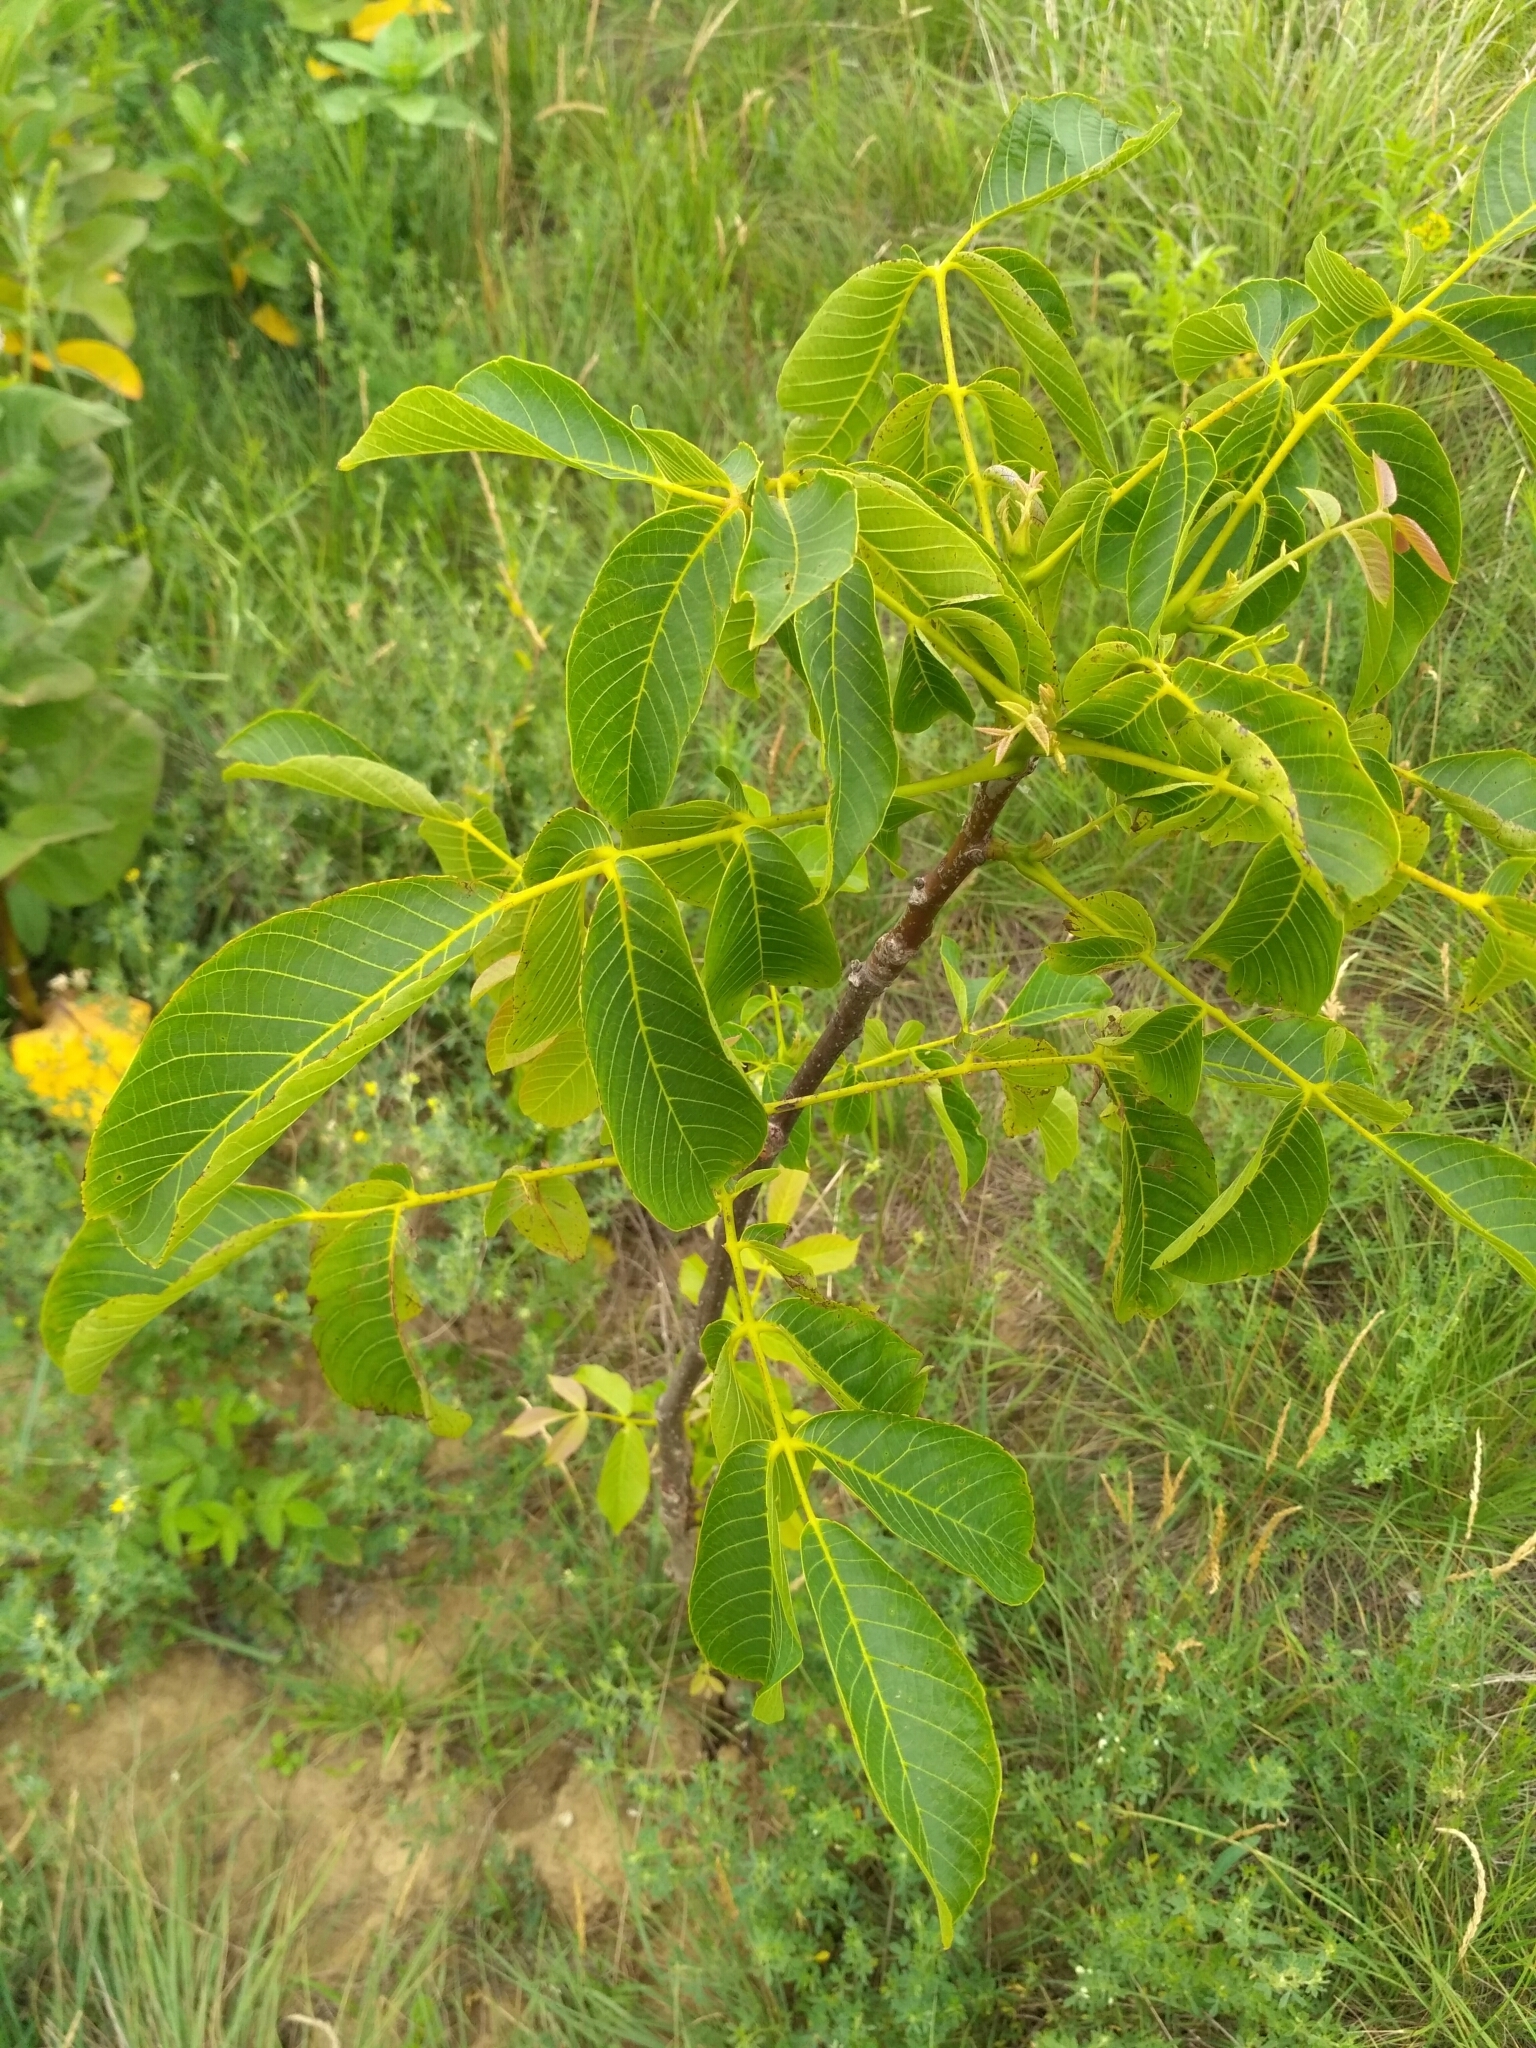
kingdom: Plantae
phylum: Tracheophyta
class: Magnoliopsida
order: Fagales
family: Juglandaceae
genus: Juglans
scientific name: Juglans regia
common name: Walnut
